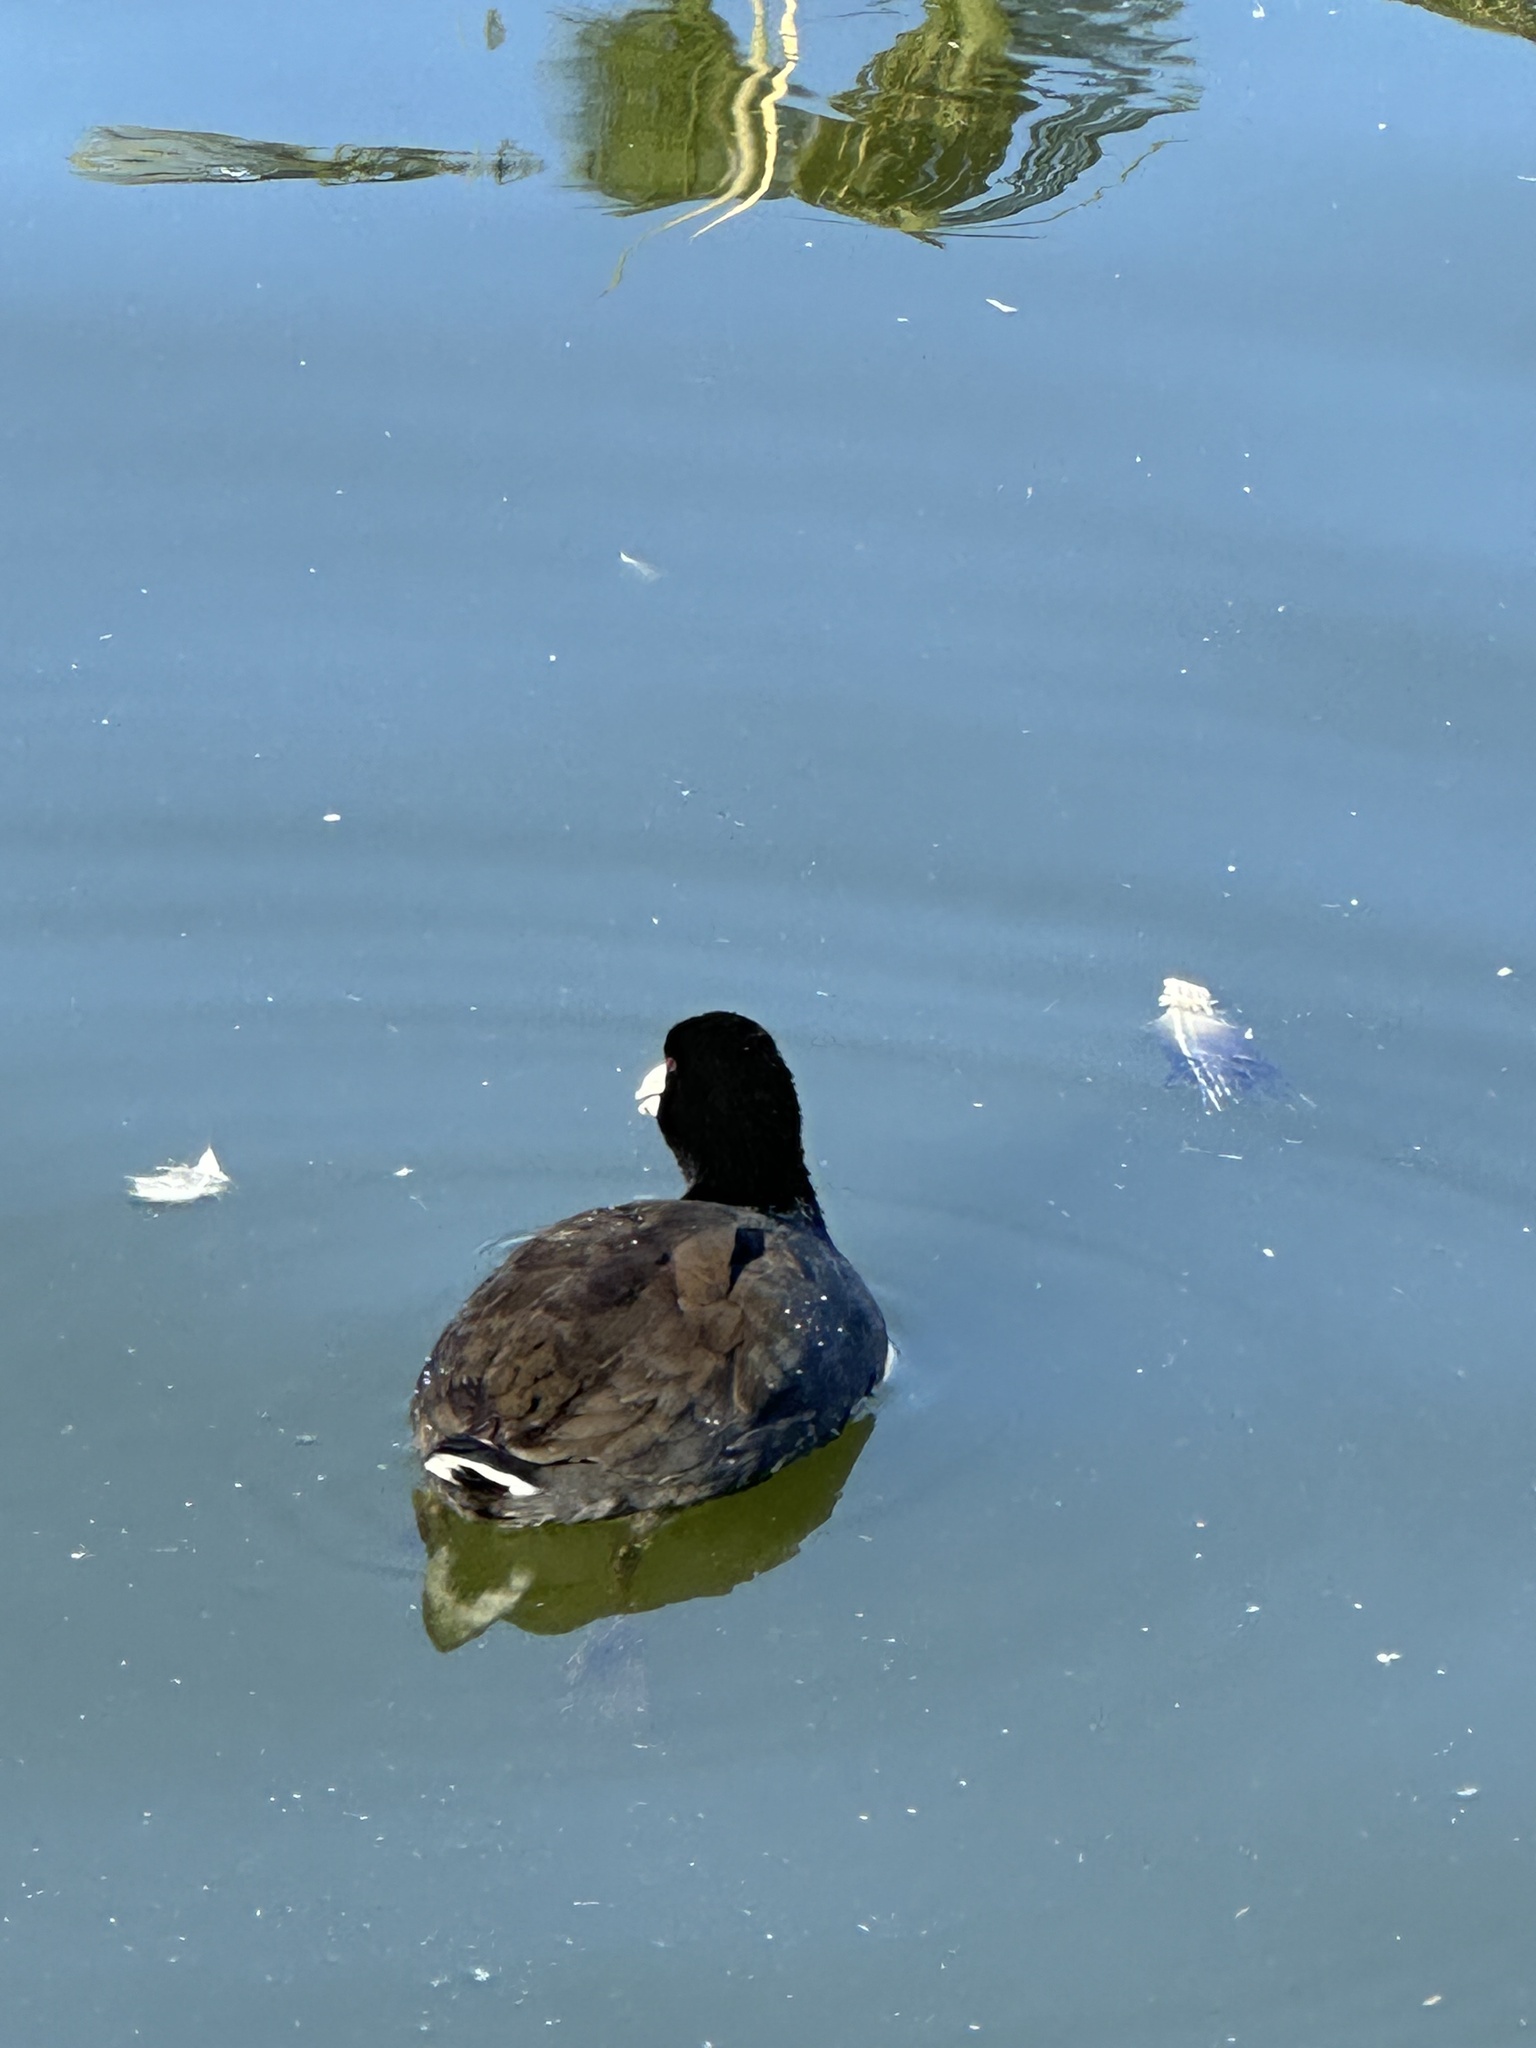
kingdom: Animalia
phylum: Chordata
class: Aves
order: Gruiformes
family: Rallidae
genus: Fulica
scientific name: Fulica americana
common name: American coot
